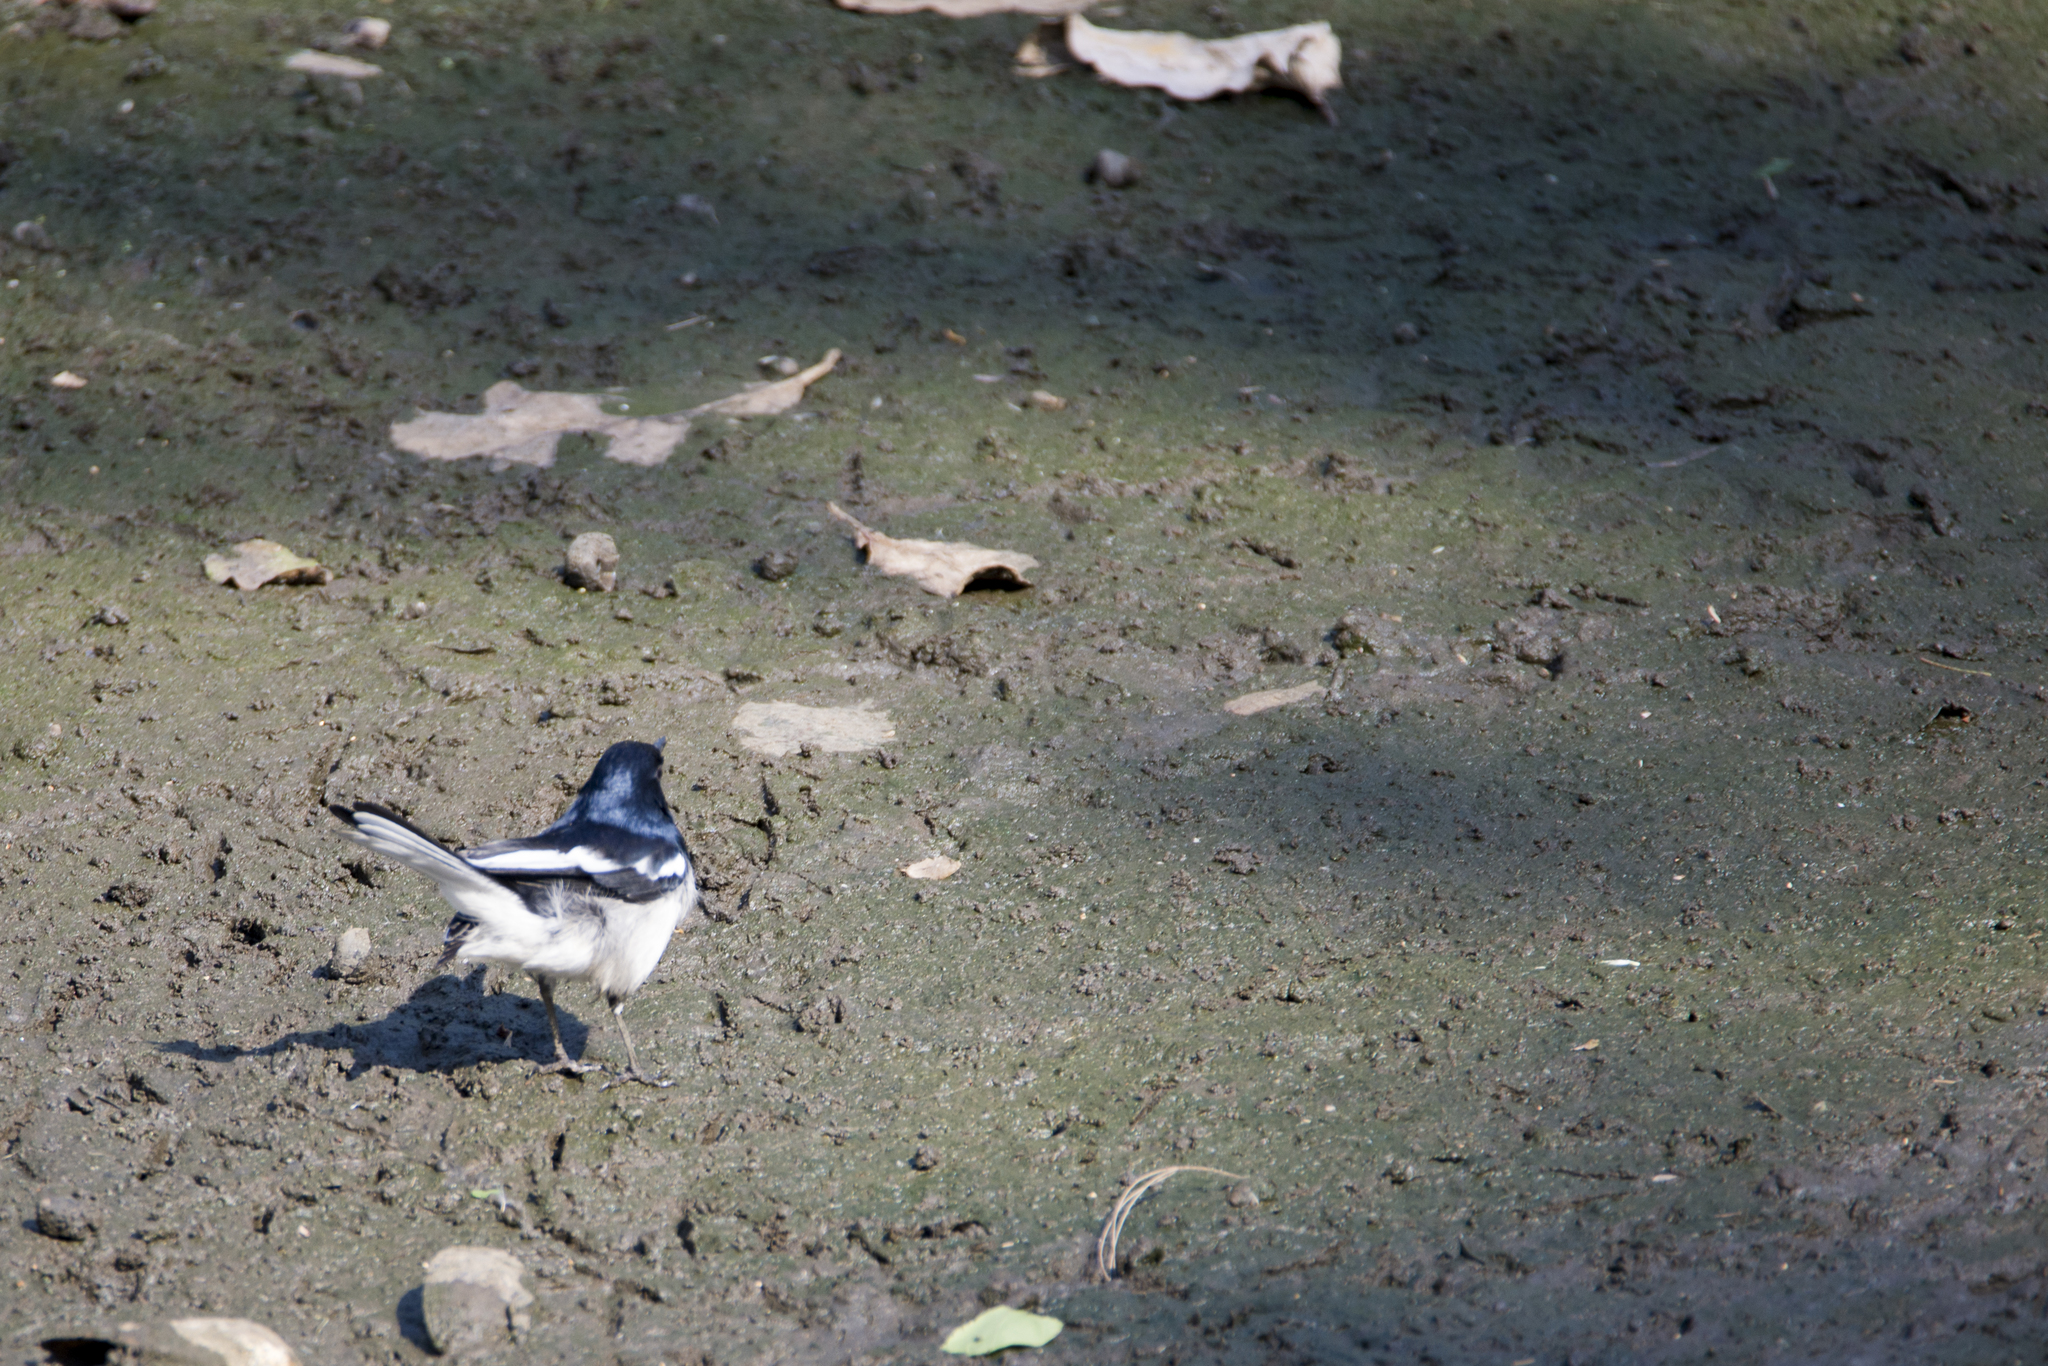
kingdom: Animalia
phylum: Chordata
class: Aves
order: Passeriformes
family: Muscicapidae
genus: Copsychus
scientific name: Copsychus saularis
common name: Oriental magpie-robin
